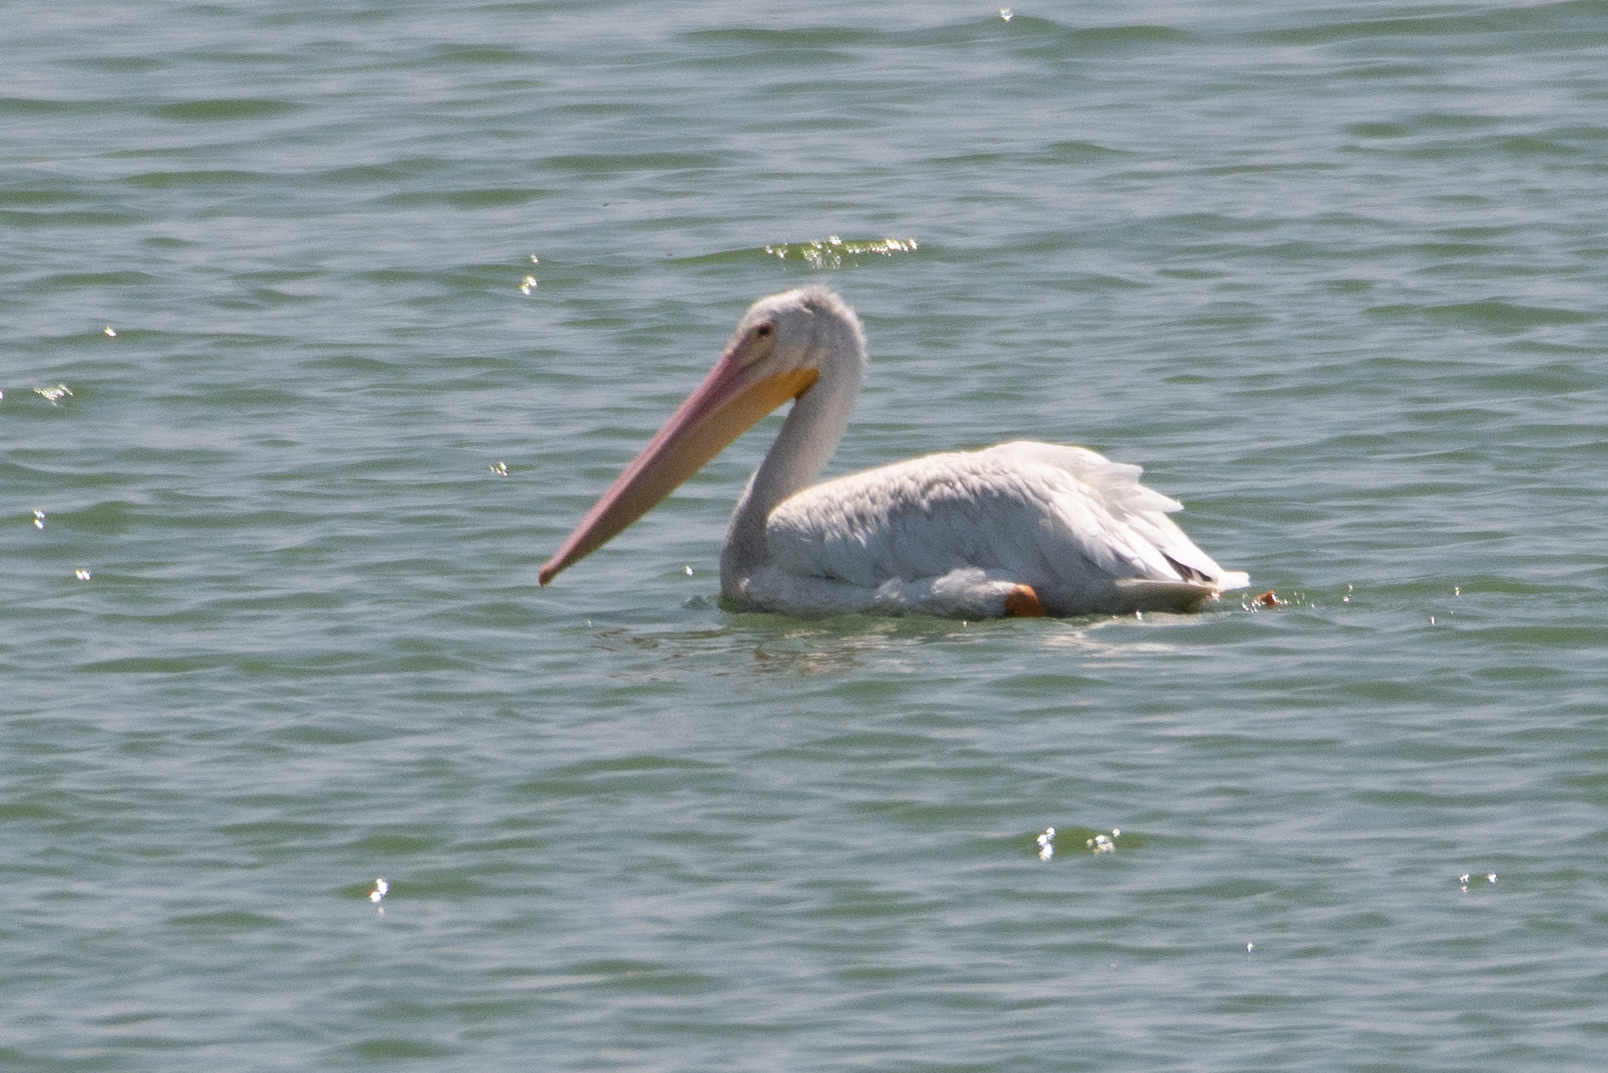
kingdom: Animalia
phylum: Chordata
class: Aves
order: Pelecaniformes
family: Pelecanidae
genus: Pelecanus
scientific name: Pelecanus erythrorhynchos
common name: American white pelican
